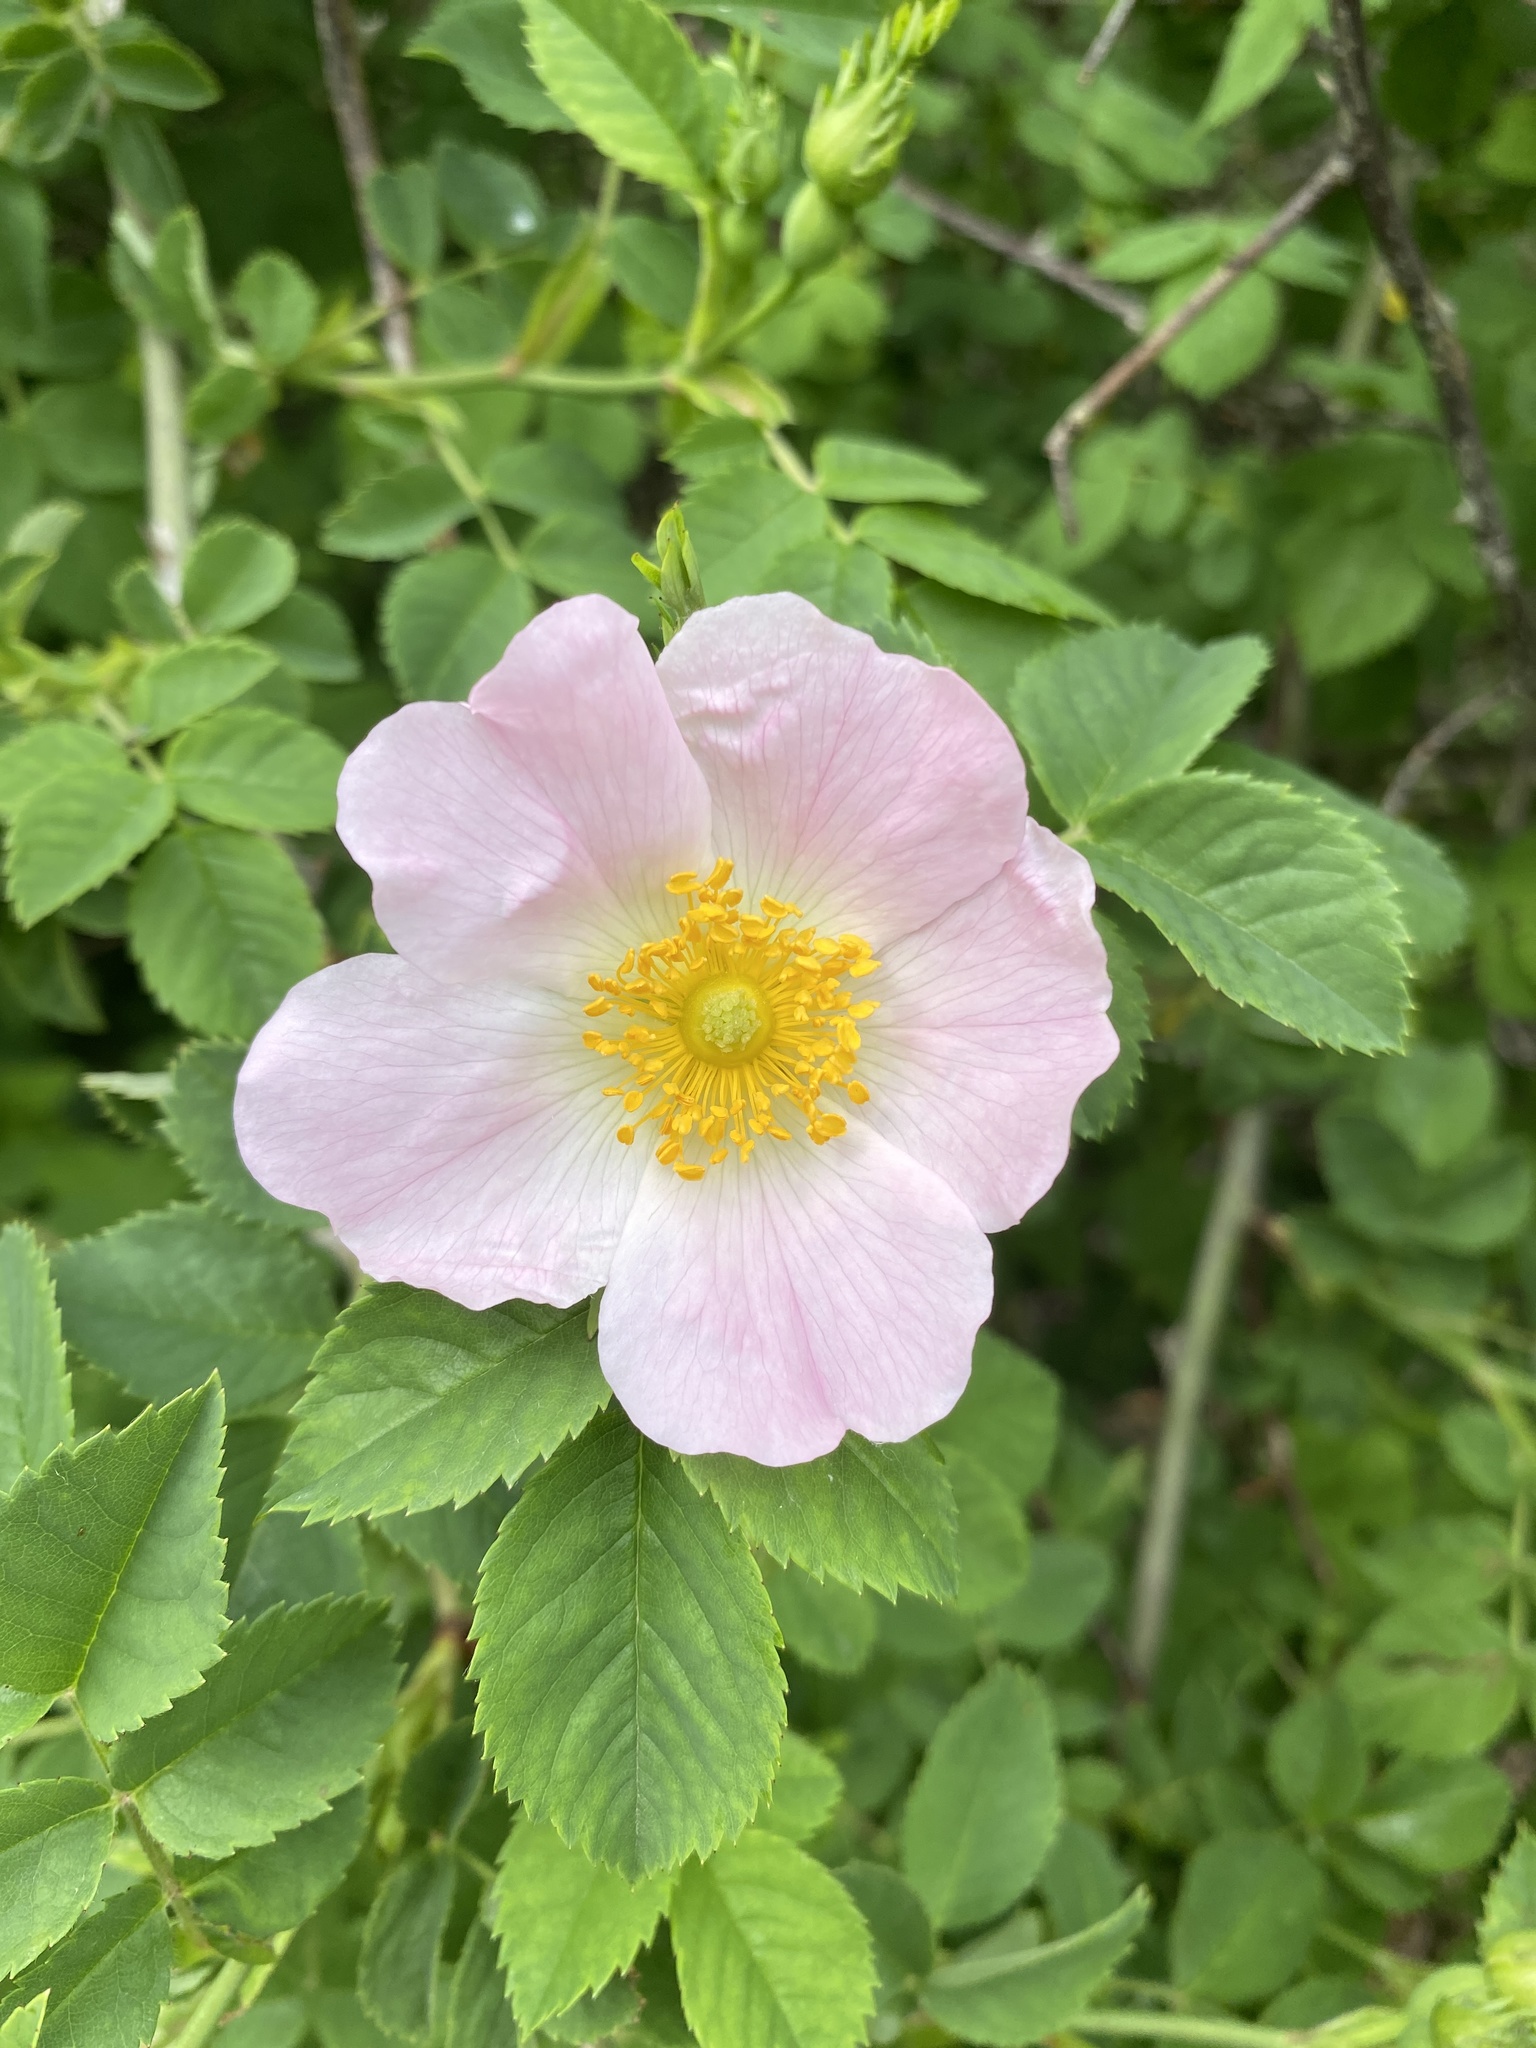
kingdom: Plantae
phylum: Tracheophyta
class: Magnoliopsida
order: Rosales
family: Rosaceae
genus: Rosa
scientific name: Rosa canina
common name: Dog rose
